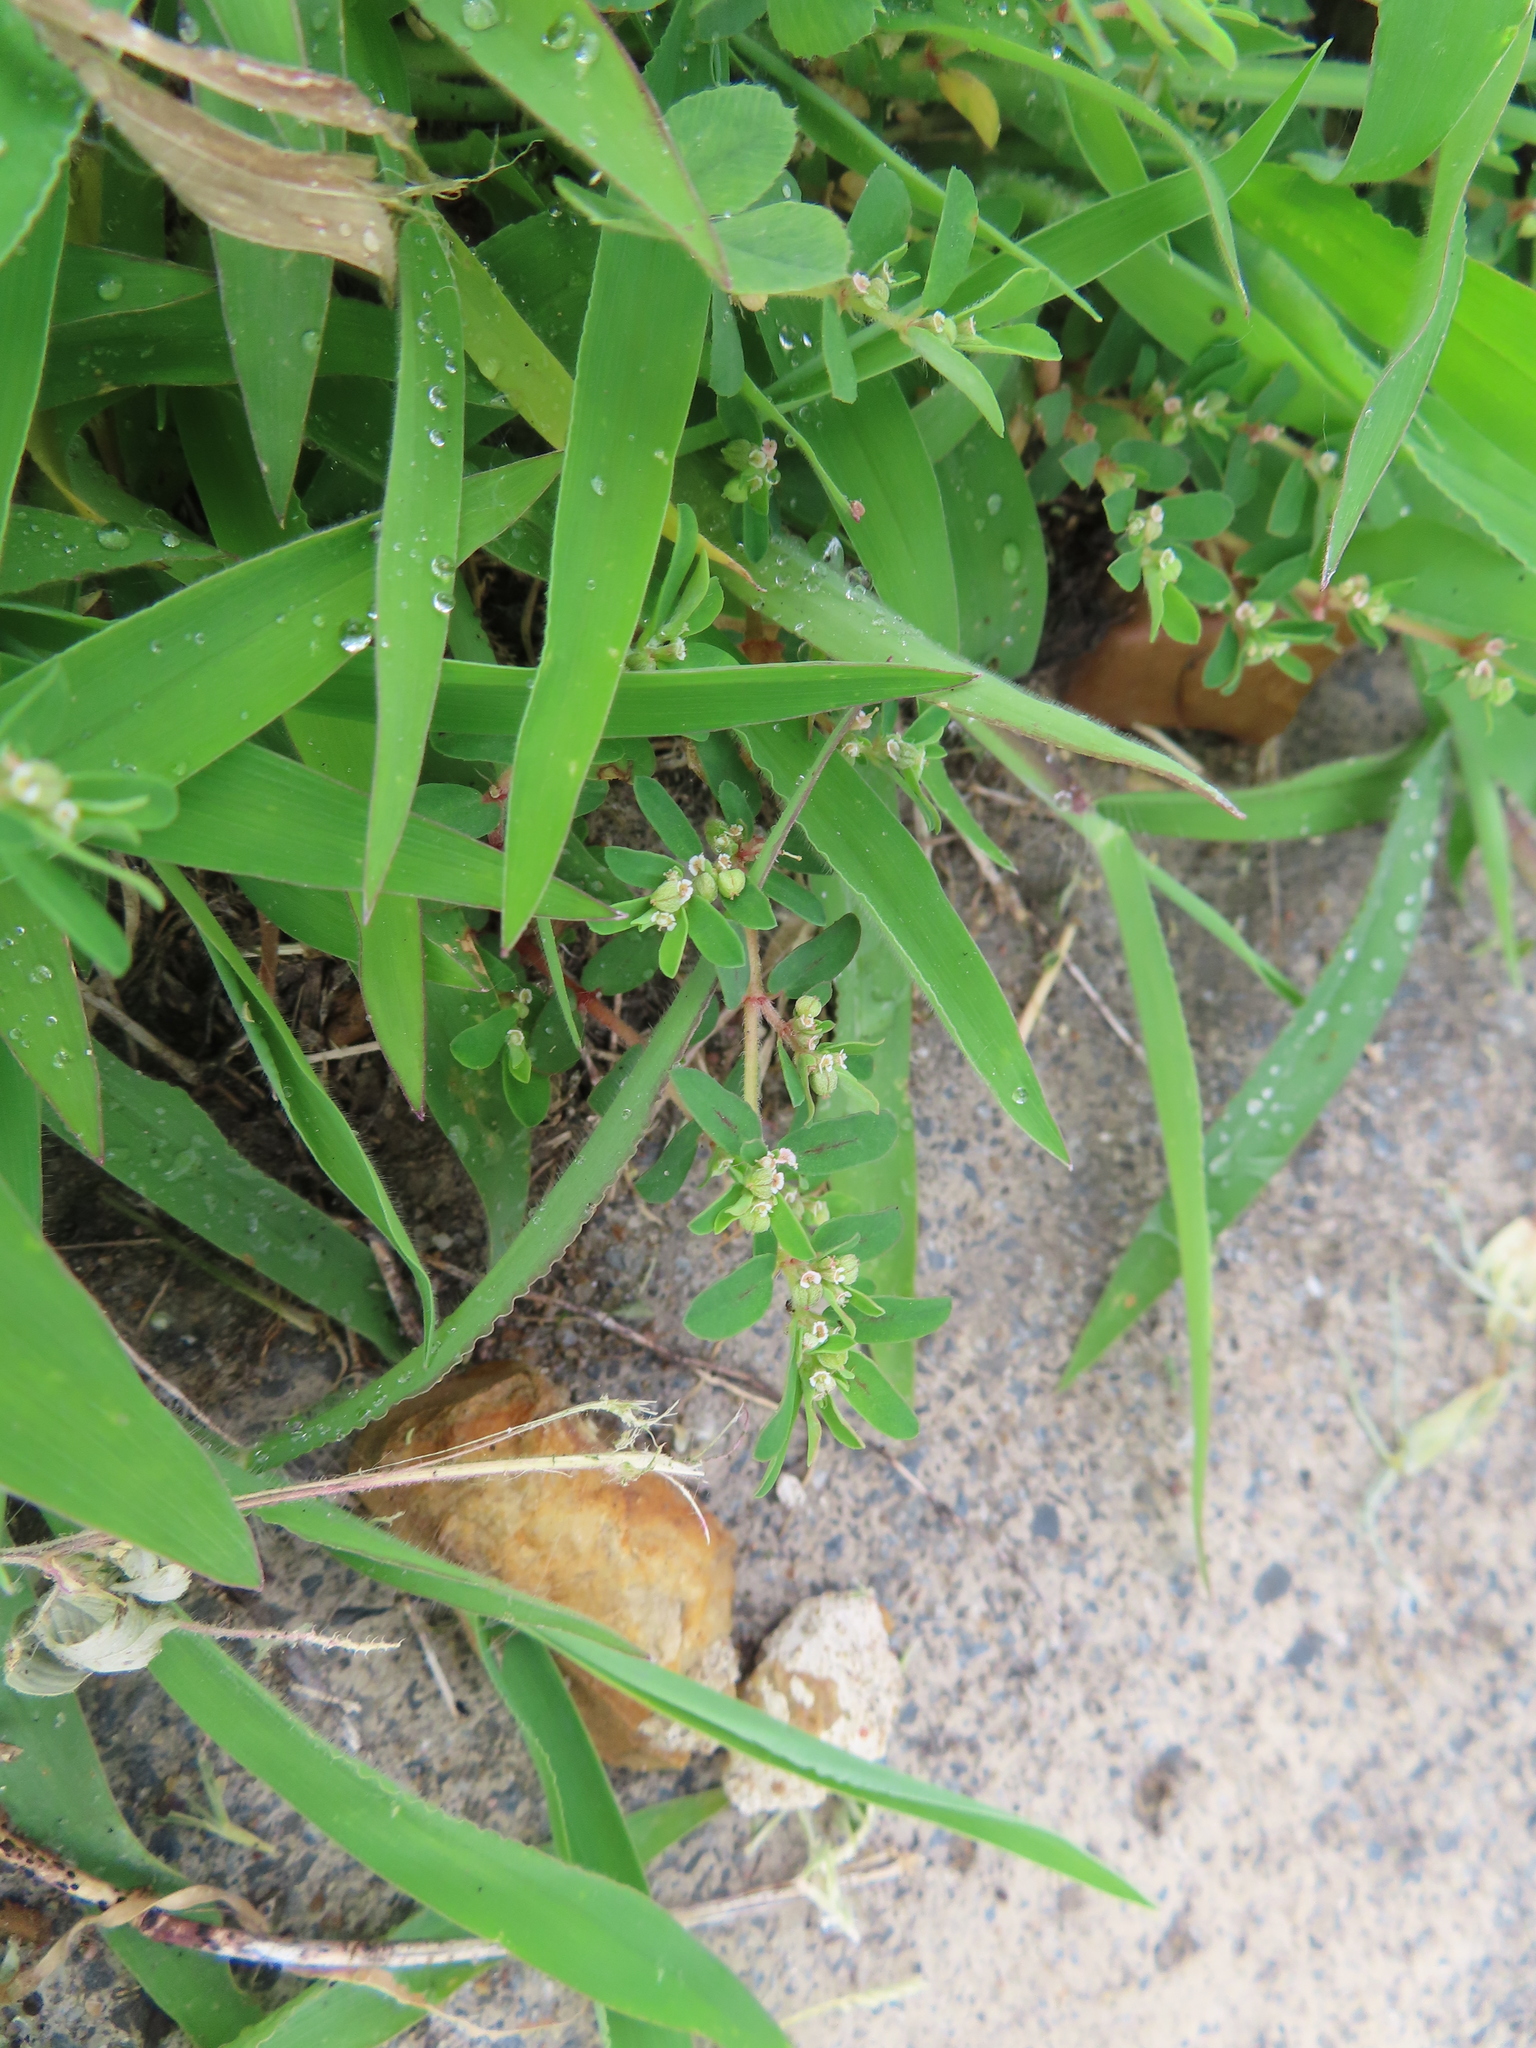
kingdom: Plantae
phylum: Tracheophyta
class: Magnoliopsida
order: Malpighiales
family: Euphorbiaceae
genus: Euphorbia
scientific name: Euphorbia maculata
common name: Spotted spurge
